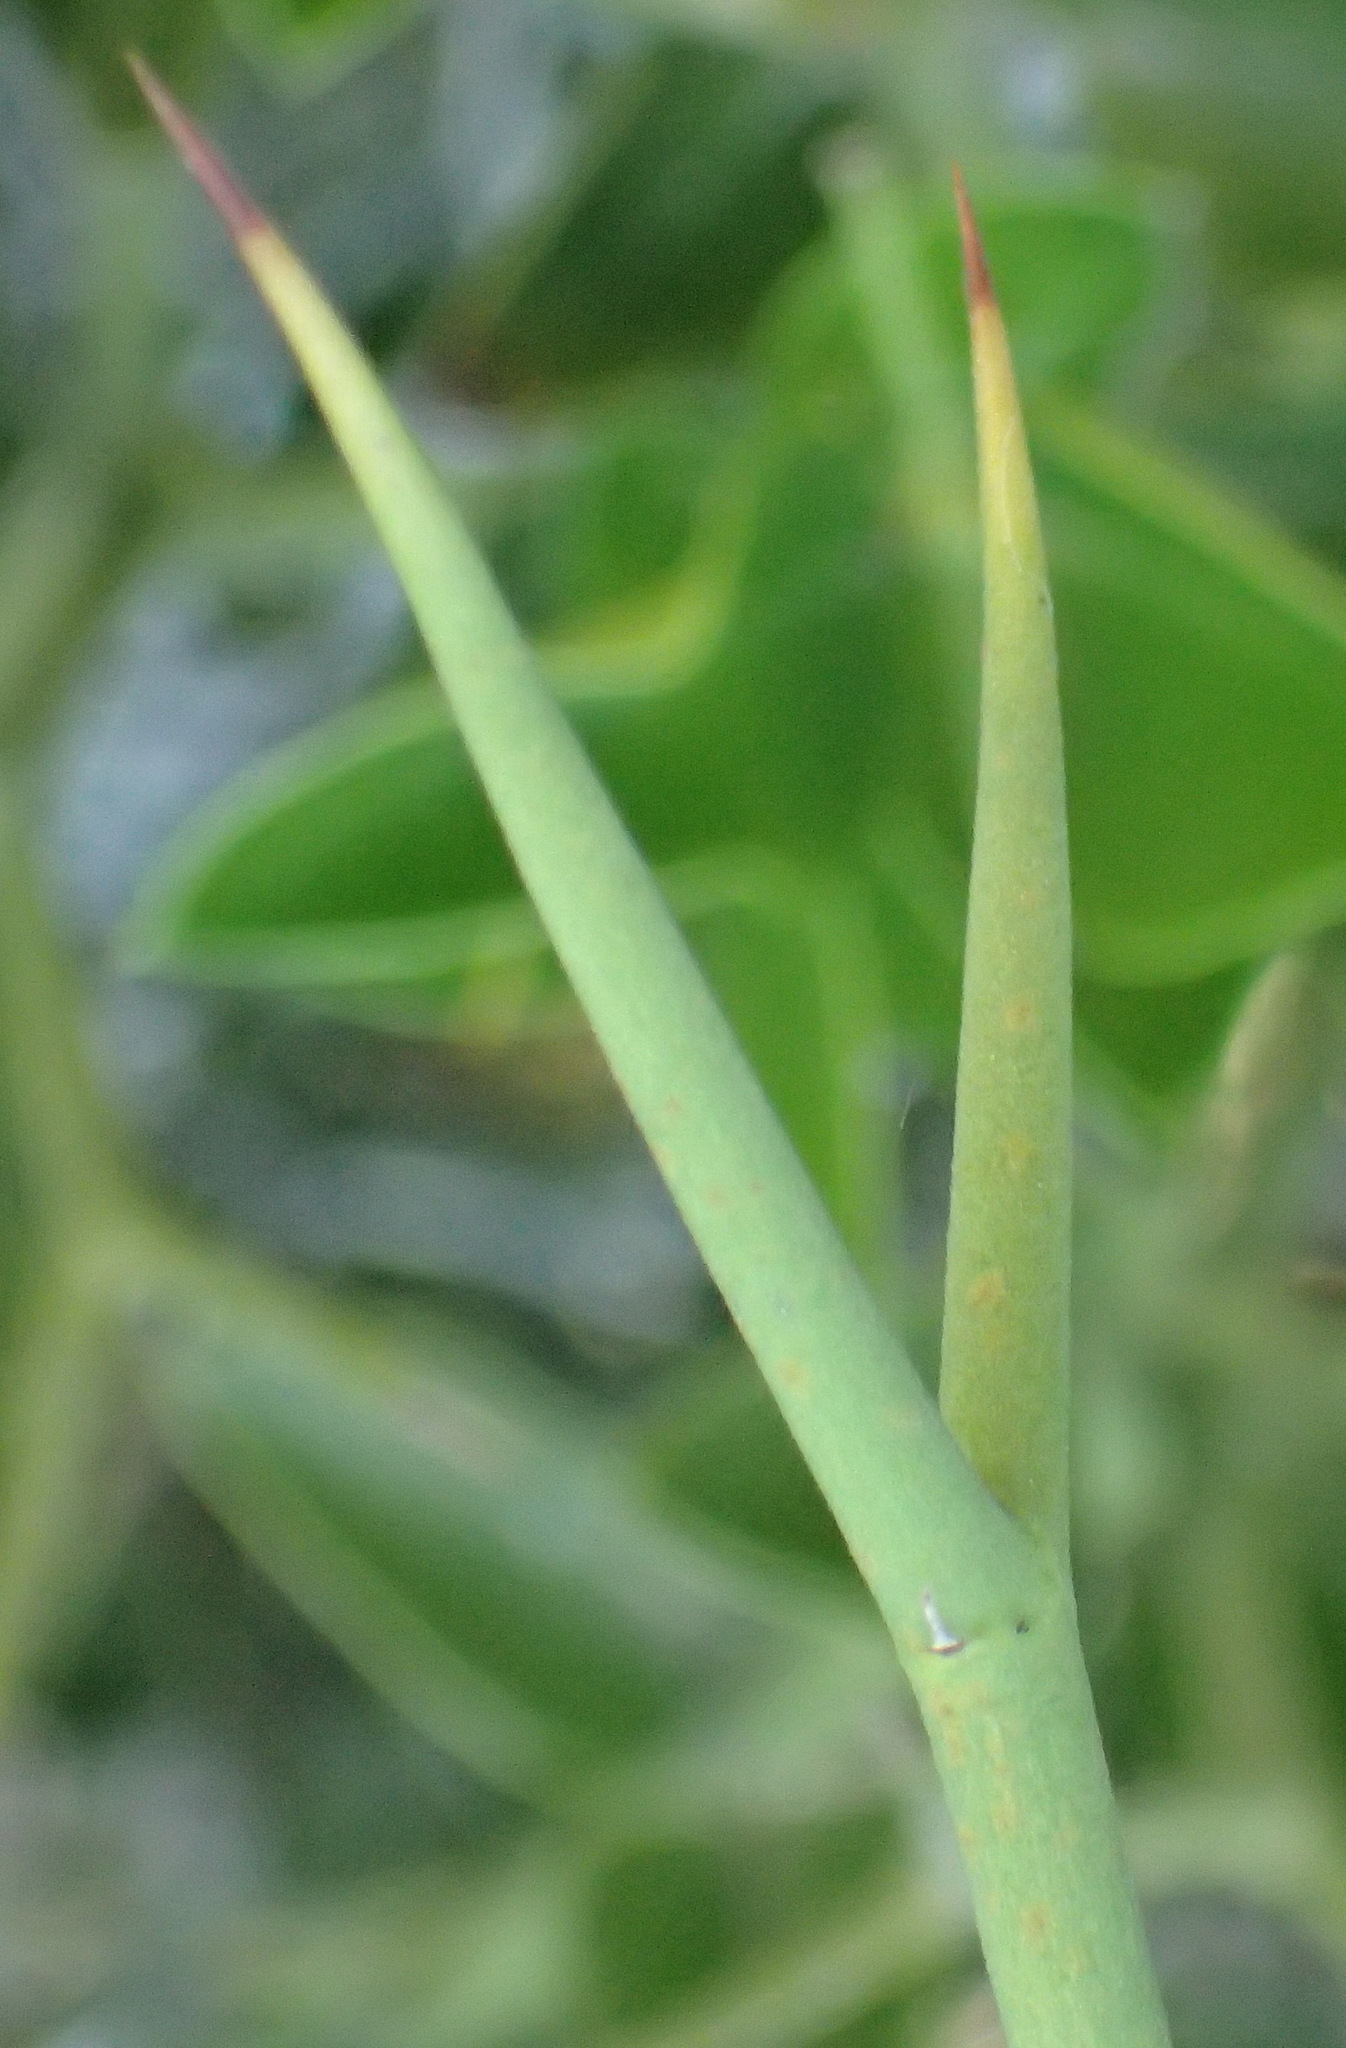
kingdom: Plantae
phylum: Tracheophyta
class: Magnoliopsida
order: Gentianales
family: Apocynaceae
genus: Carissa
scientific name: Carissa haematocarpa
